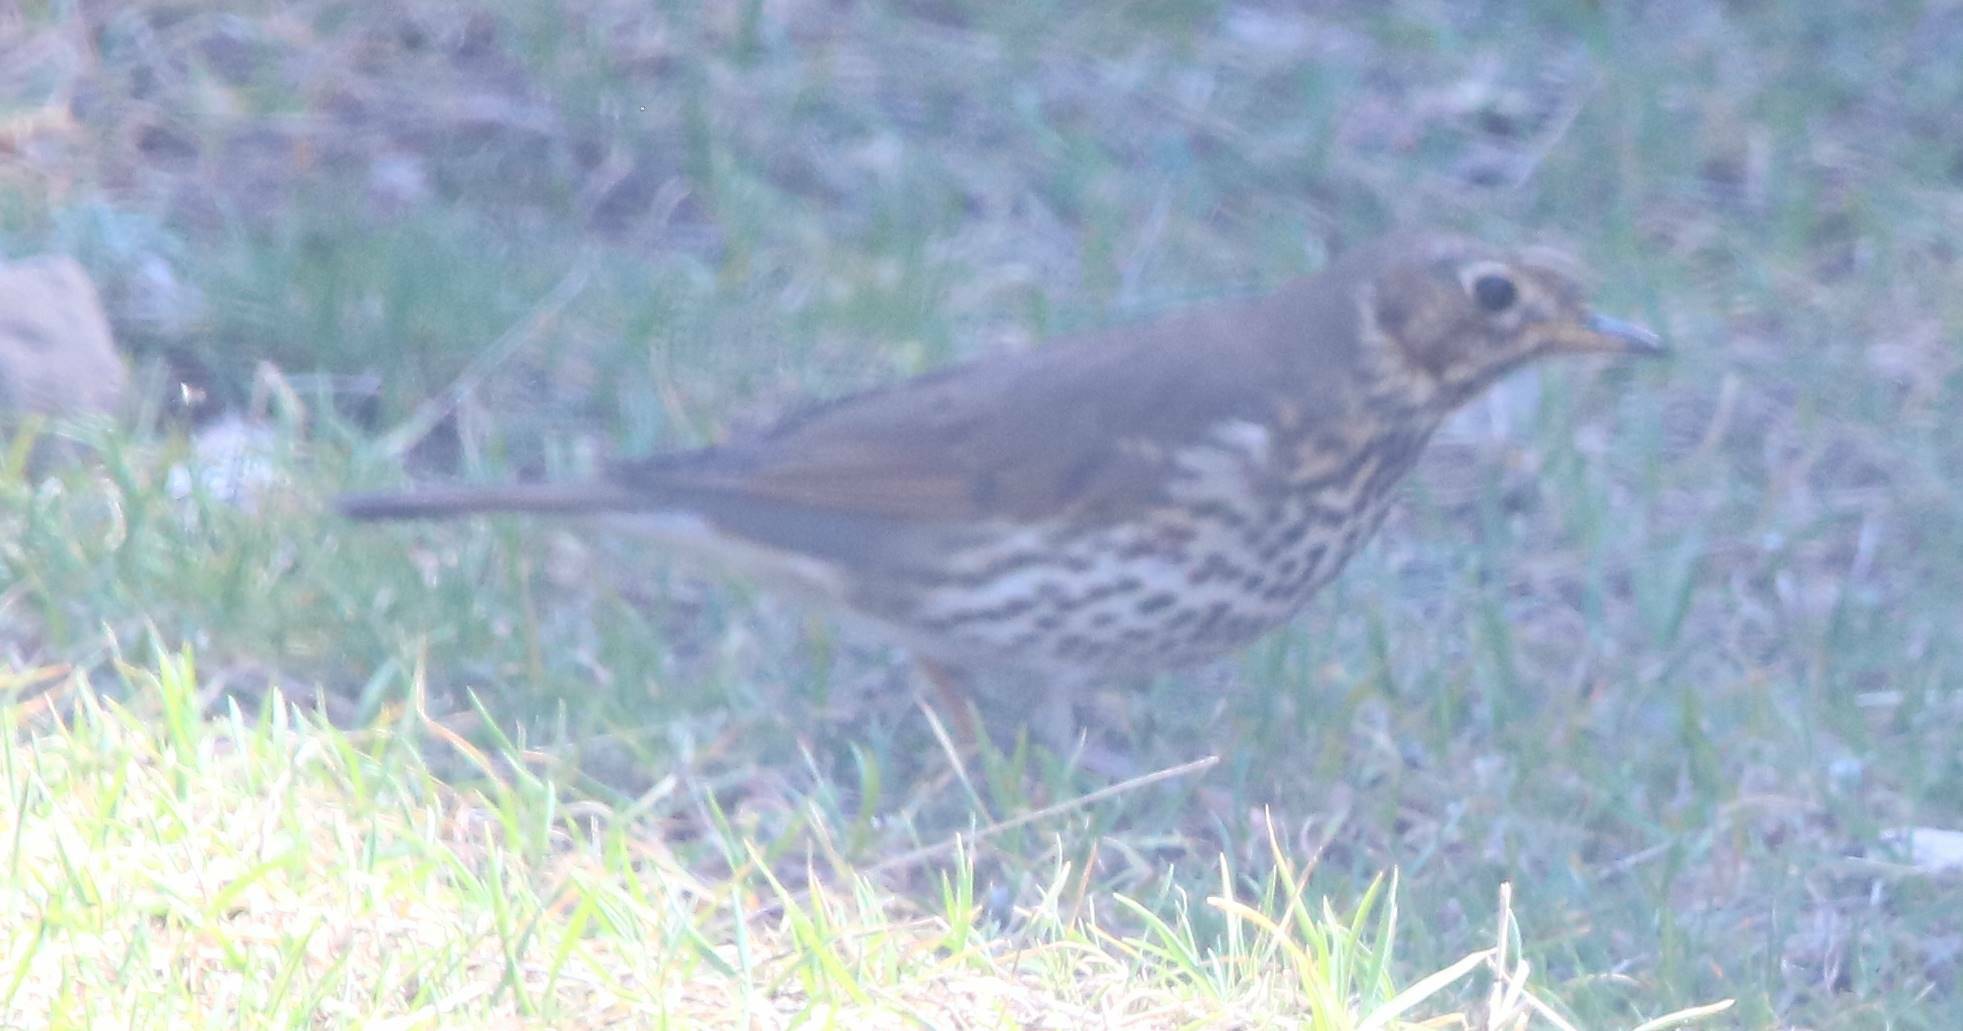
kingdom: Animalia
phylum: Chordata
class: Aves
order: Passeriformes
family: Turdidae
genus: Turdus
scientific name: Turdus philomelos
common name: Song thrush
